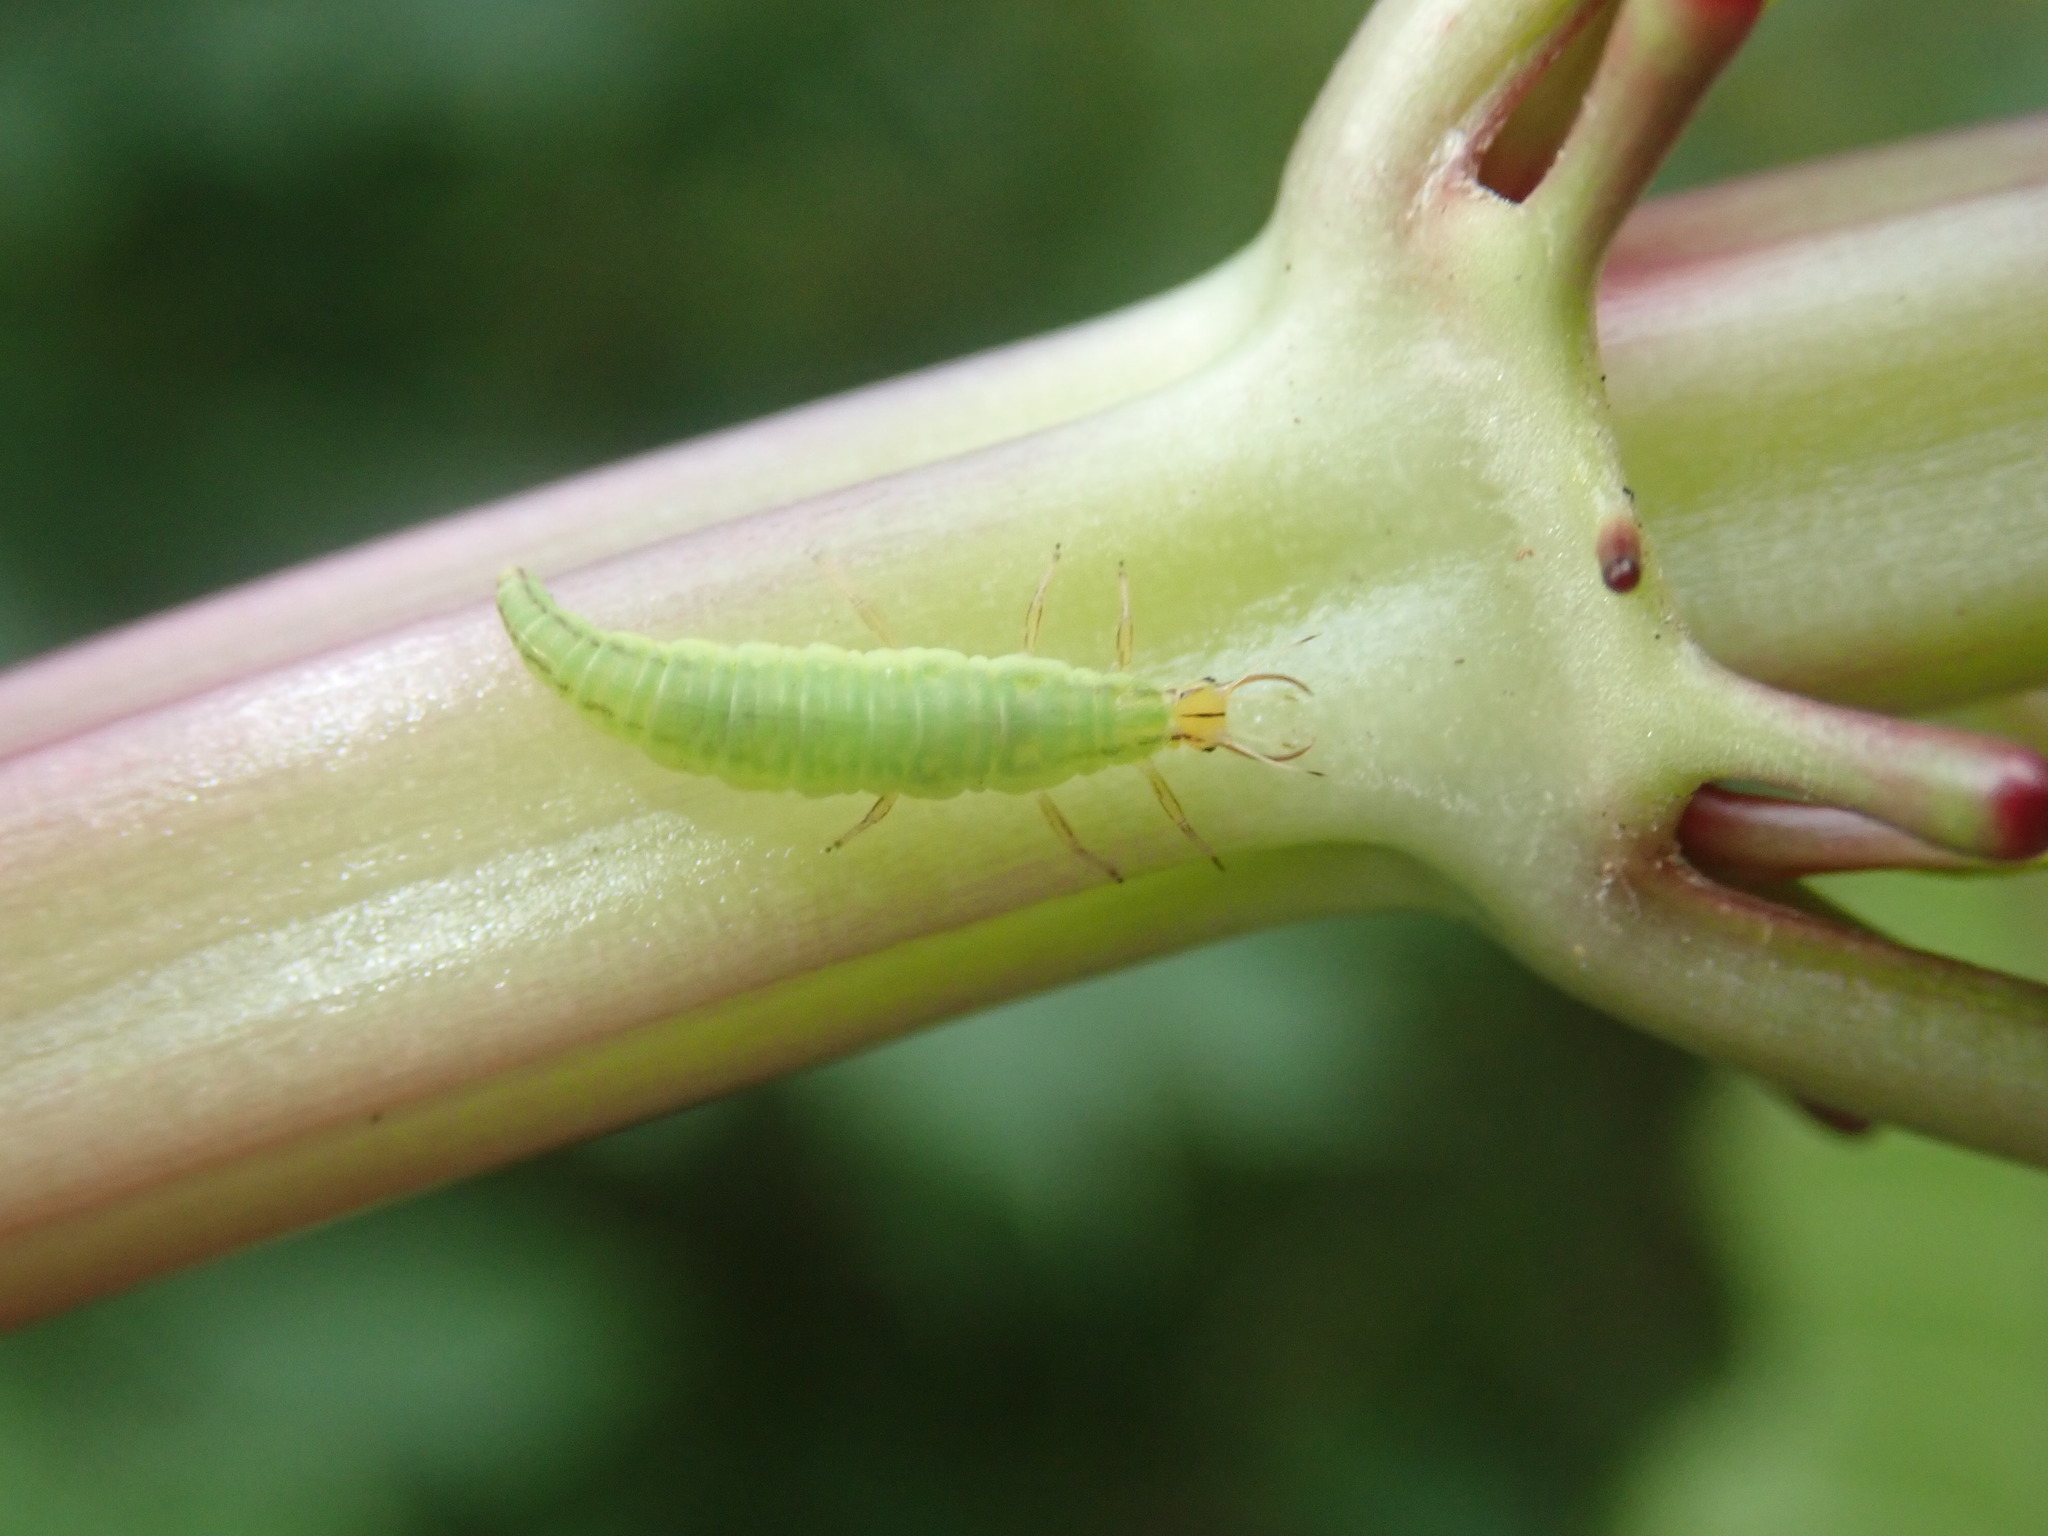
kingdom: Animalia
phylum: Arthropoda
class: Insecta
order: Neuroptera
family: Chrysopidae
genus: Hypochrysa
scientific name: Hypochrysa elegans
